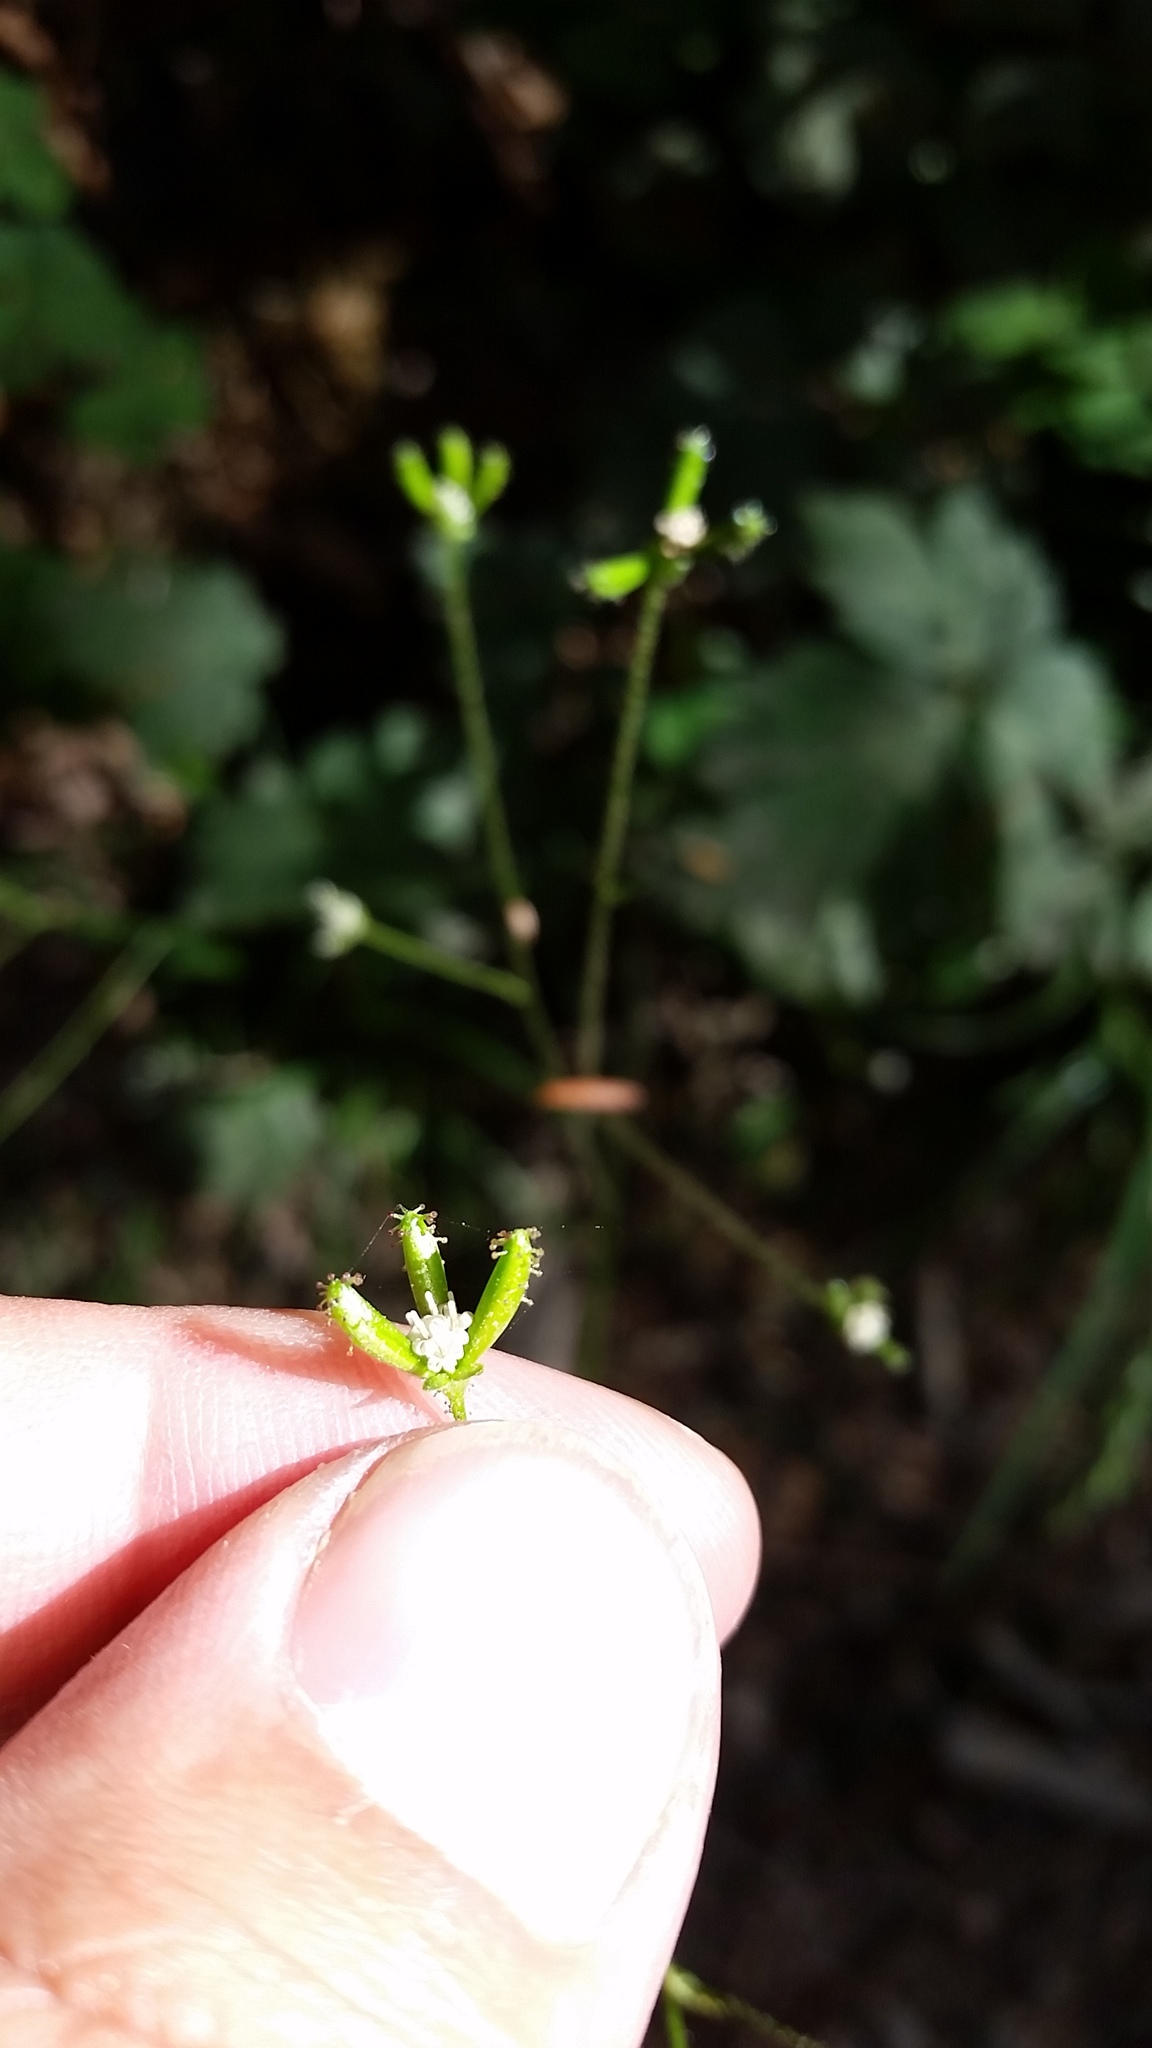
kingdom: Plantae
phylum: Tracheophyta
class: Magnoliopsida
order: Asterales
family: Asteraceae
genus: Adenocaulon
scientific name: Adenocaulon bicolor
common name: Trailplant
